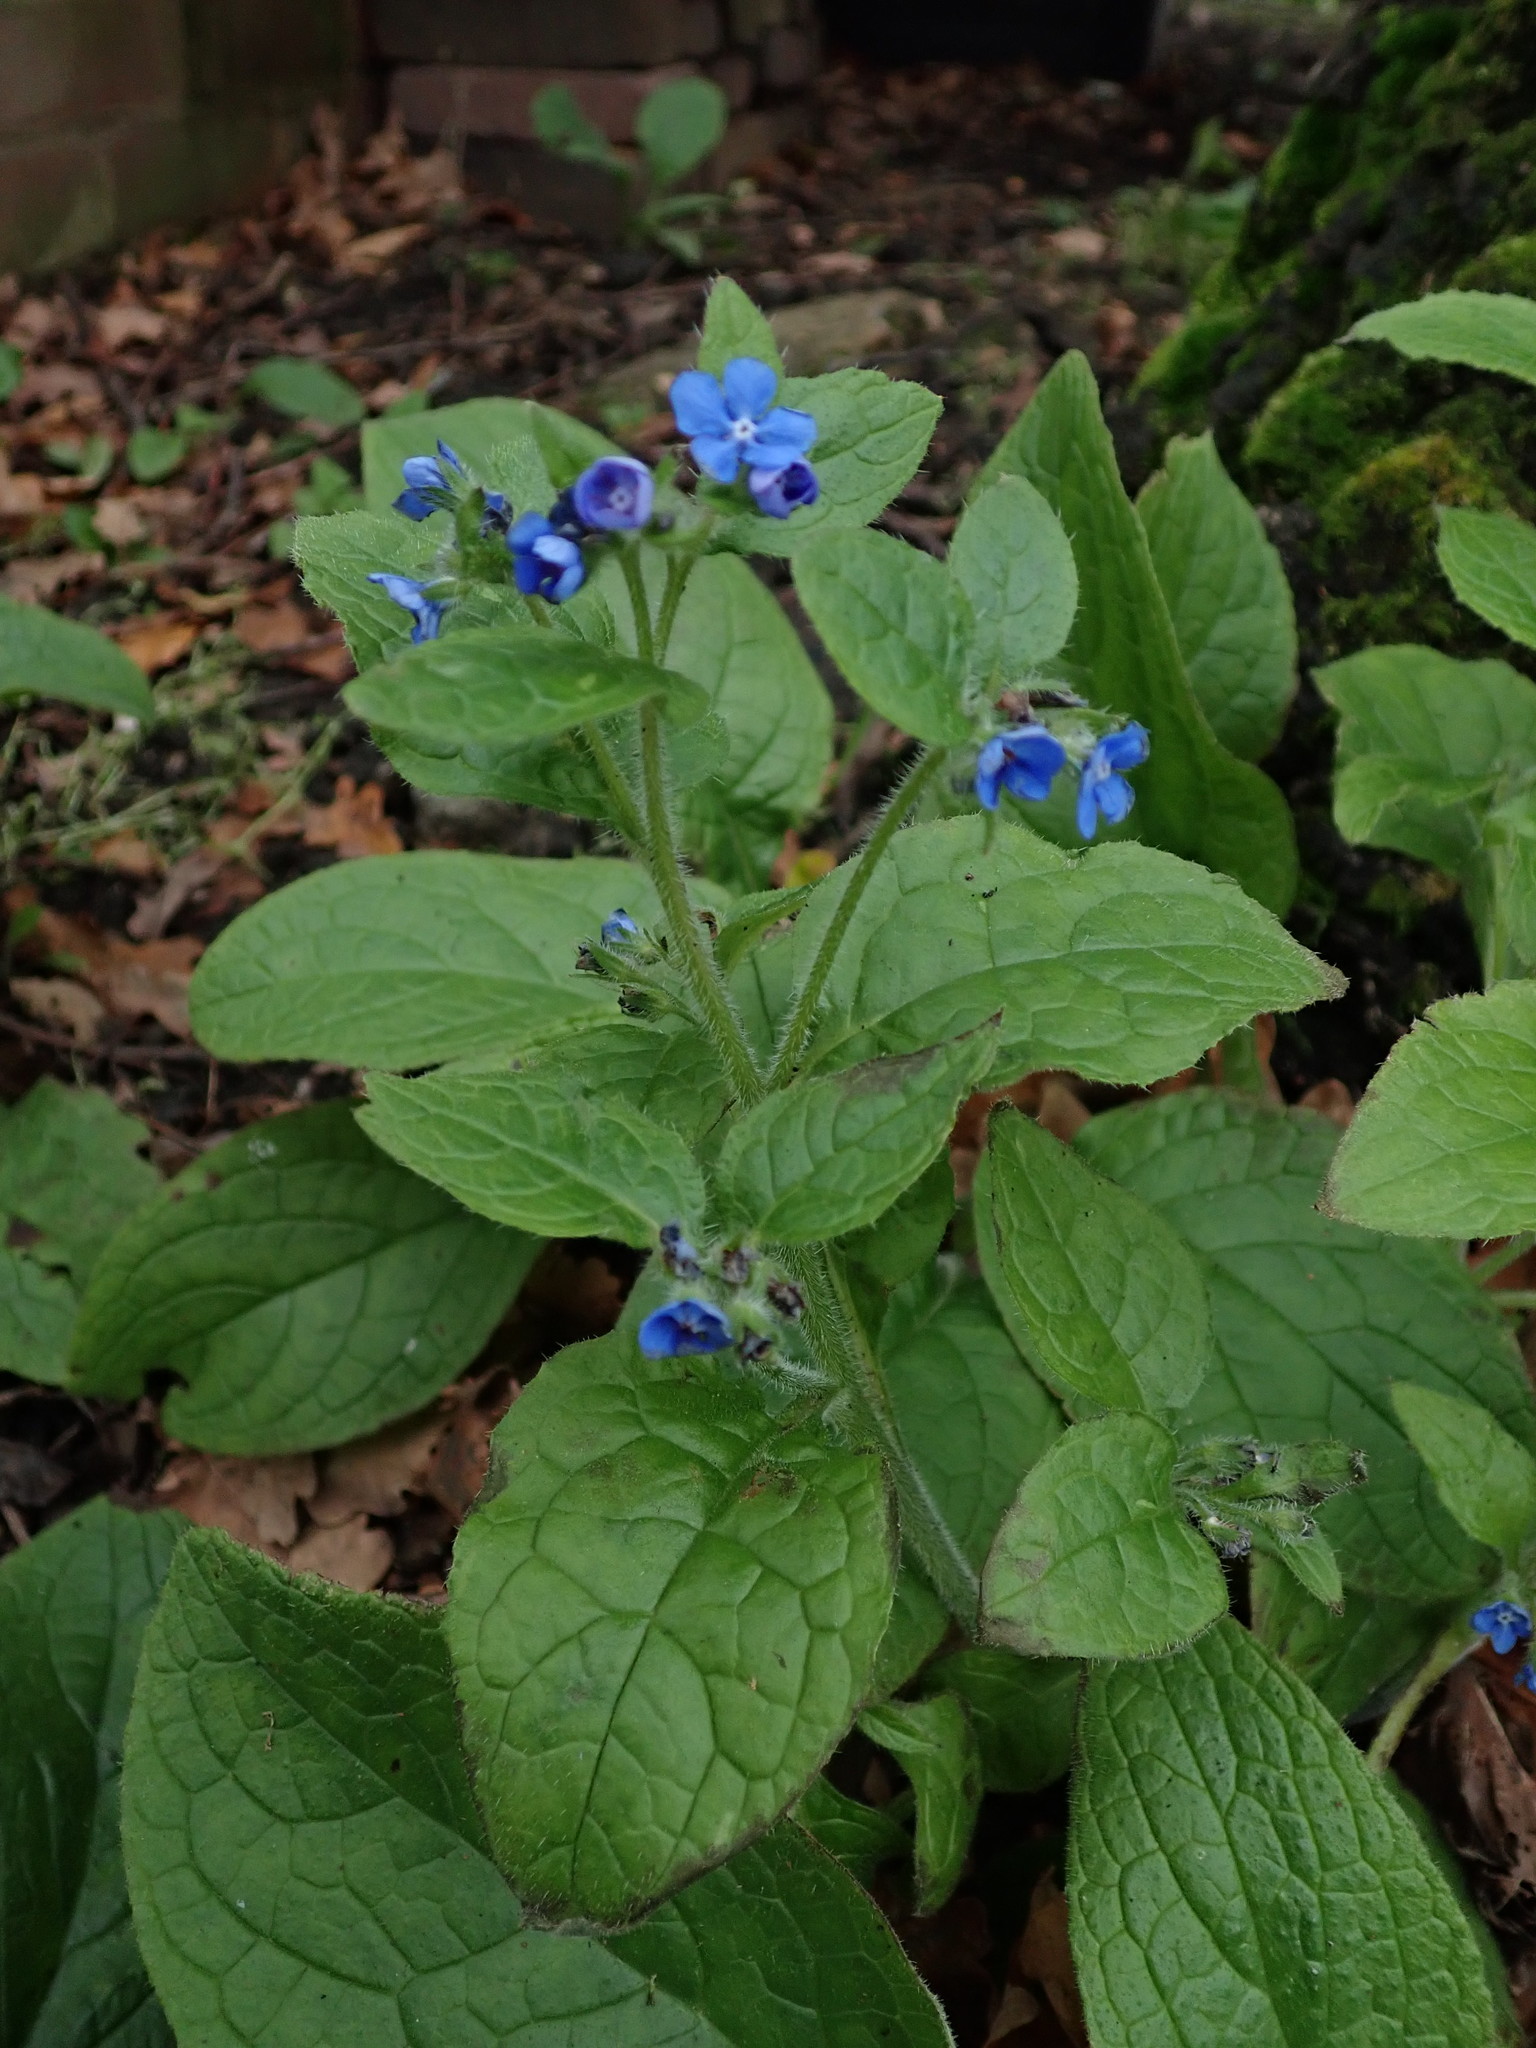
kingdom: Plantae
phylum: Tracheophyta
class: Magnoliopsida
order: Boraginales
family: Boraginaceae
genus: Pentaglottis
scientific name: Pentaglottis sempervirens
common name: Green alkanet
